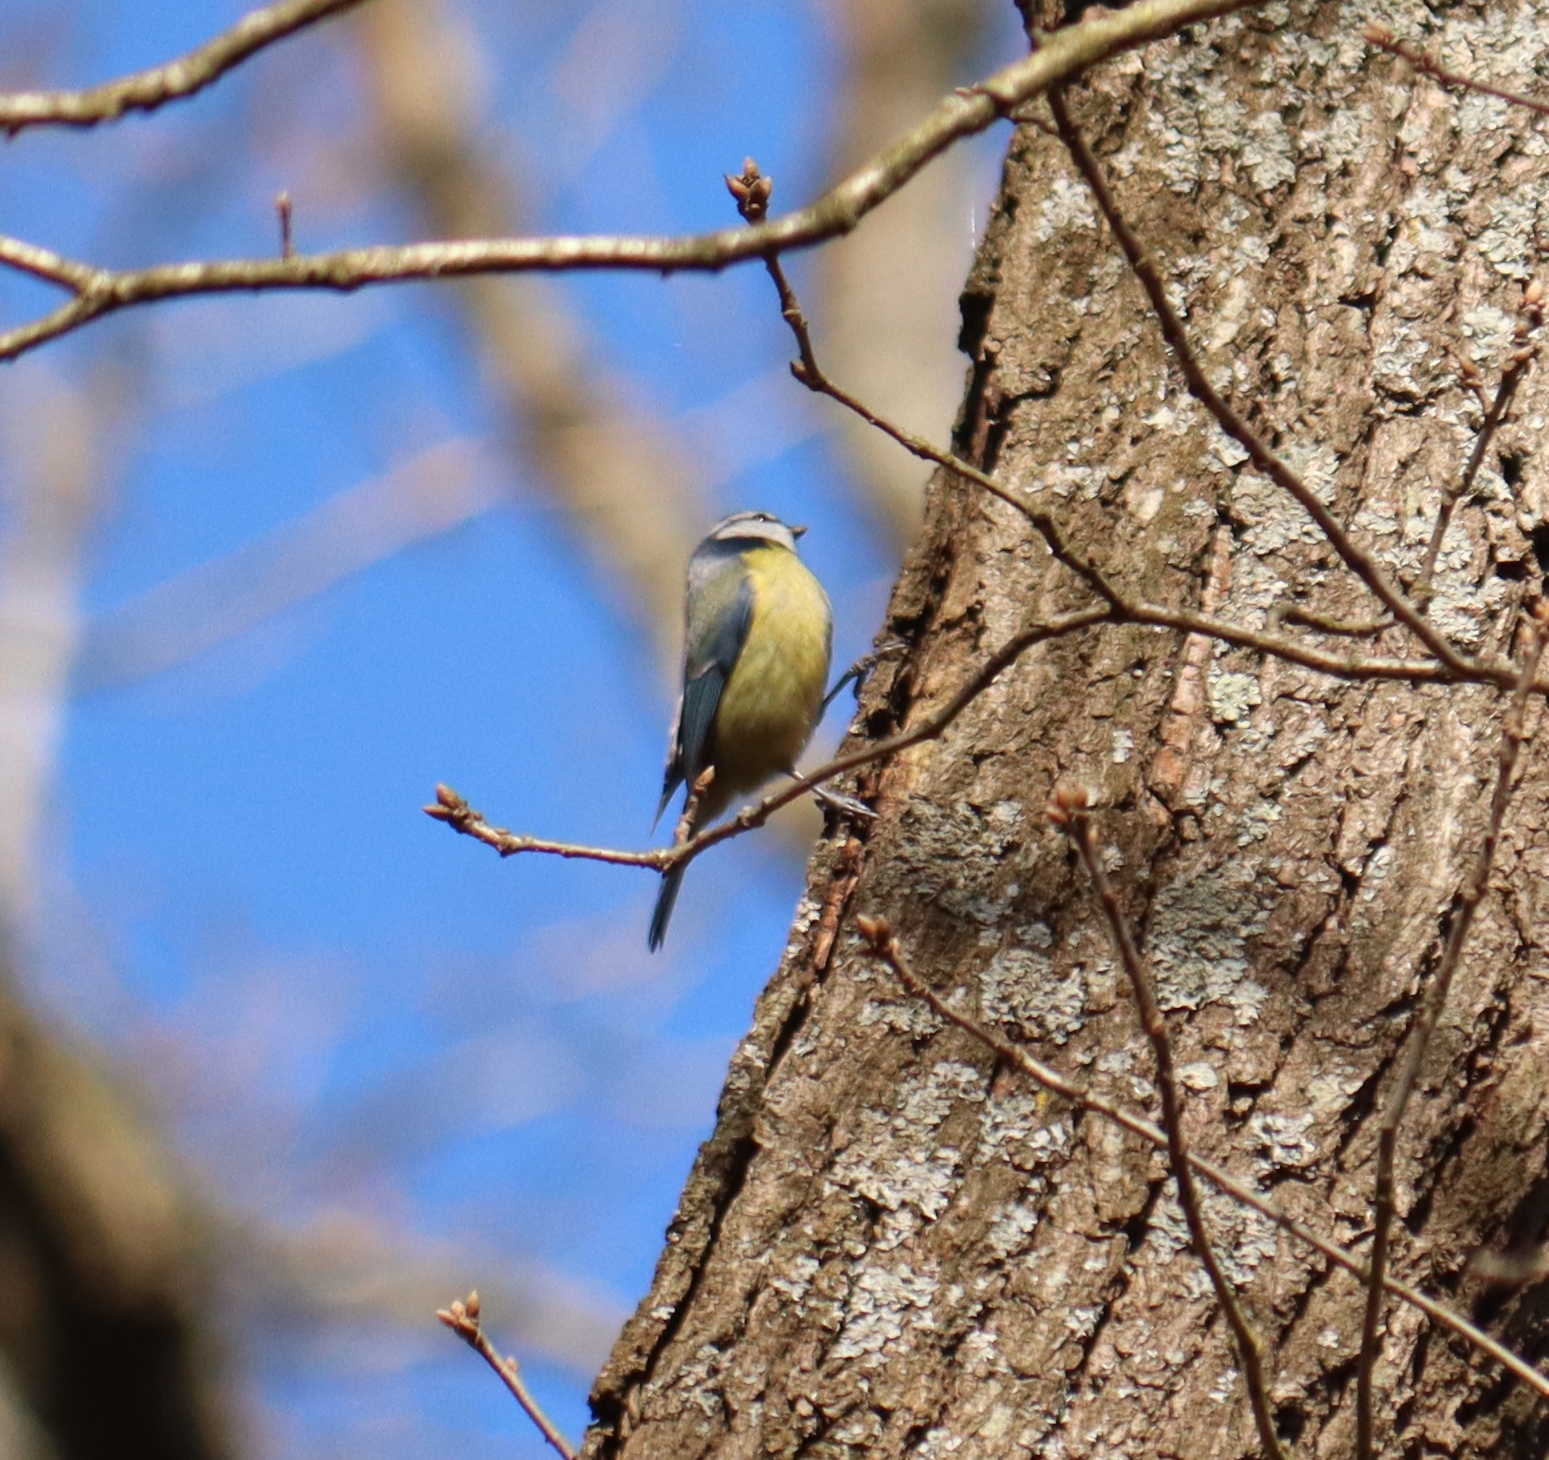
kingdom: Animalia
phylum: Chordata
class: Aves
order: Passeriformes
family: Paridae
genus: Cyanistes
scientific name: Cyanistes caeruleus
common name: Eurasian blue tit
